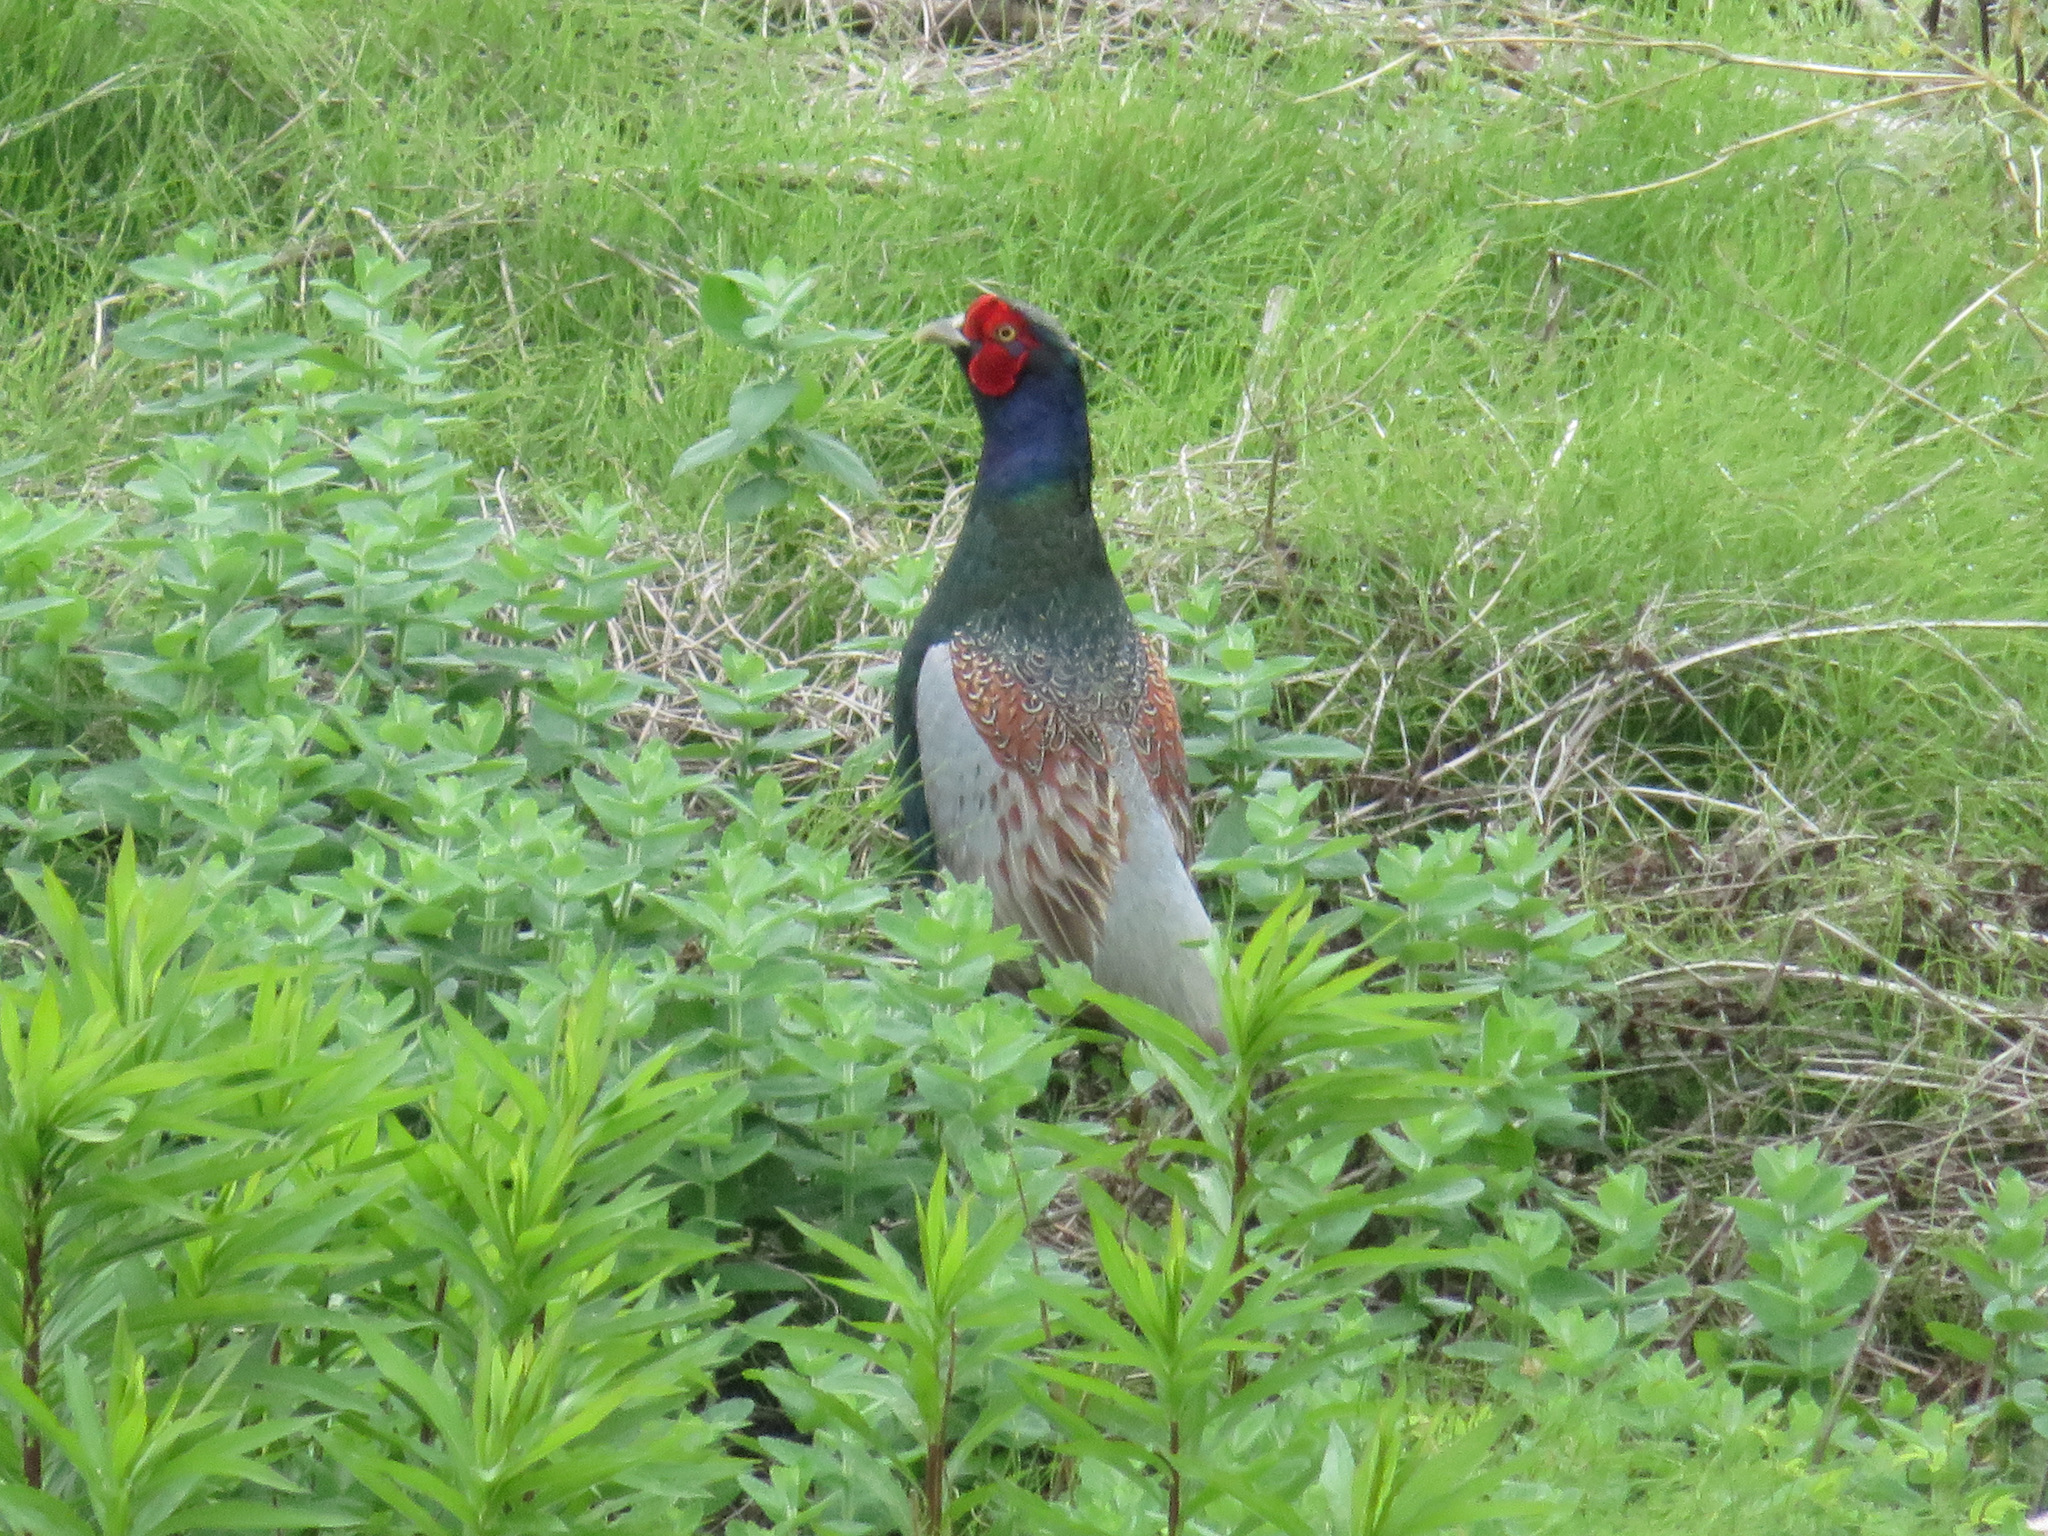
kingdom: Animalia
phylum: Chordata
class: Aves
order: Galliformes
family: Phasianidae
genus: Phasianus
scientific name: Phasianus versicolor
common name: Green pheasant
